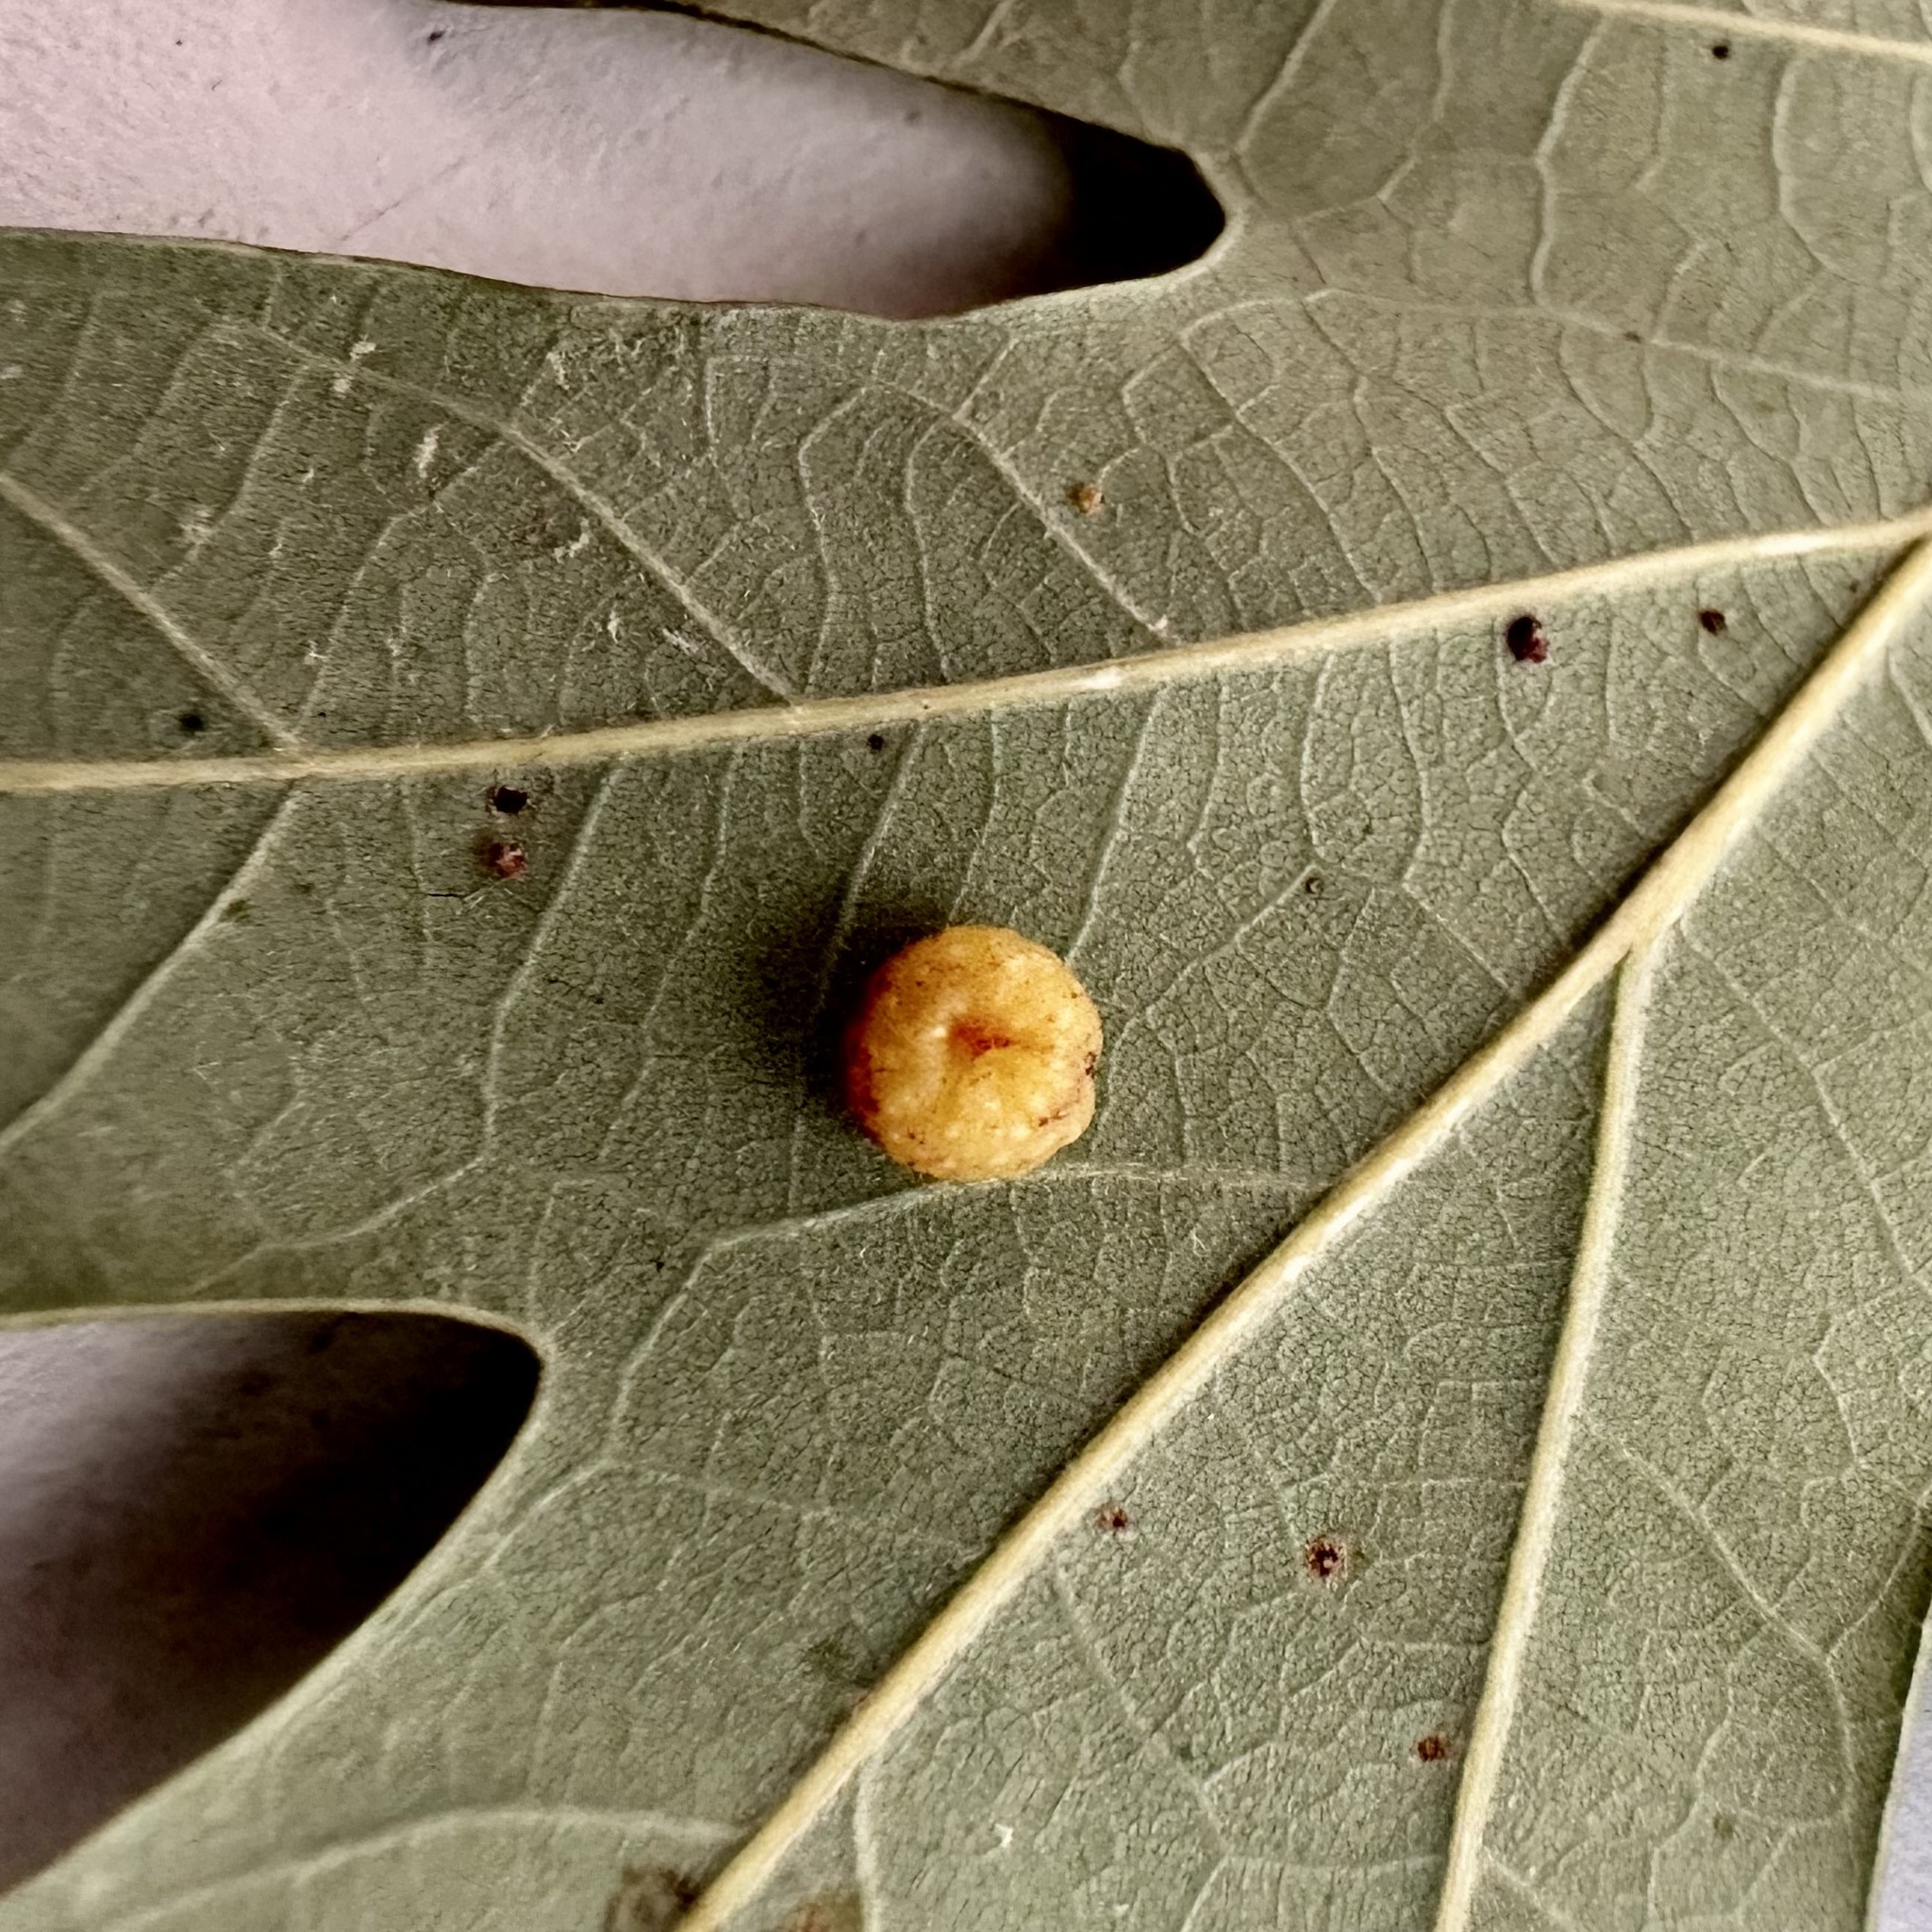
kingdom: Animalia
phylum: Arthropoda
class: Insecta
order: Hymenoptera
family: Cynipidae
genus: Andricus
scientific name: Andricus
